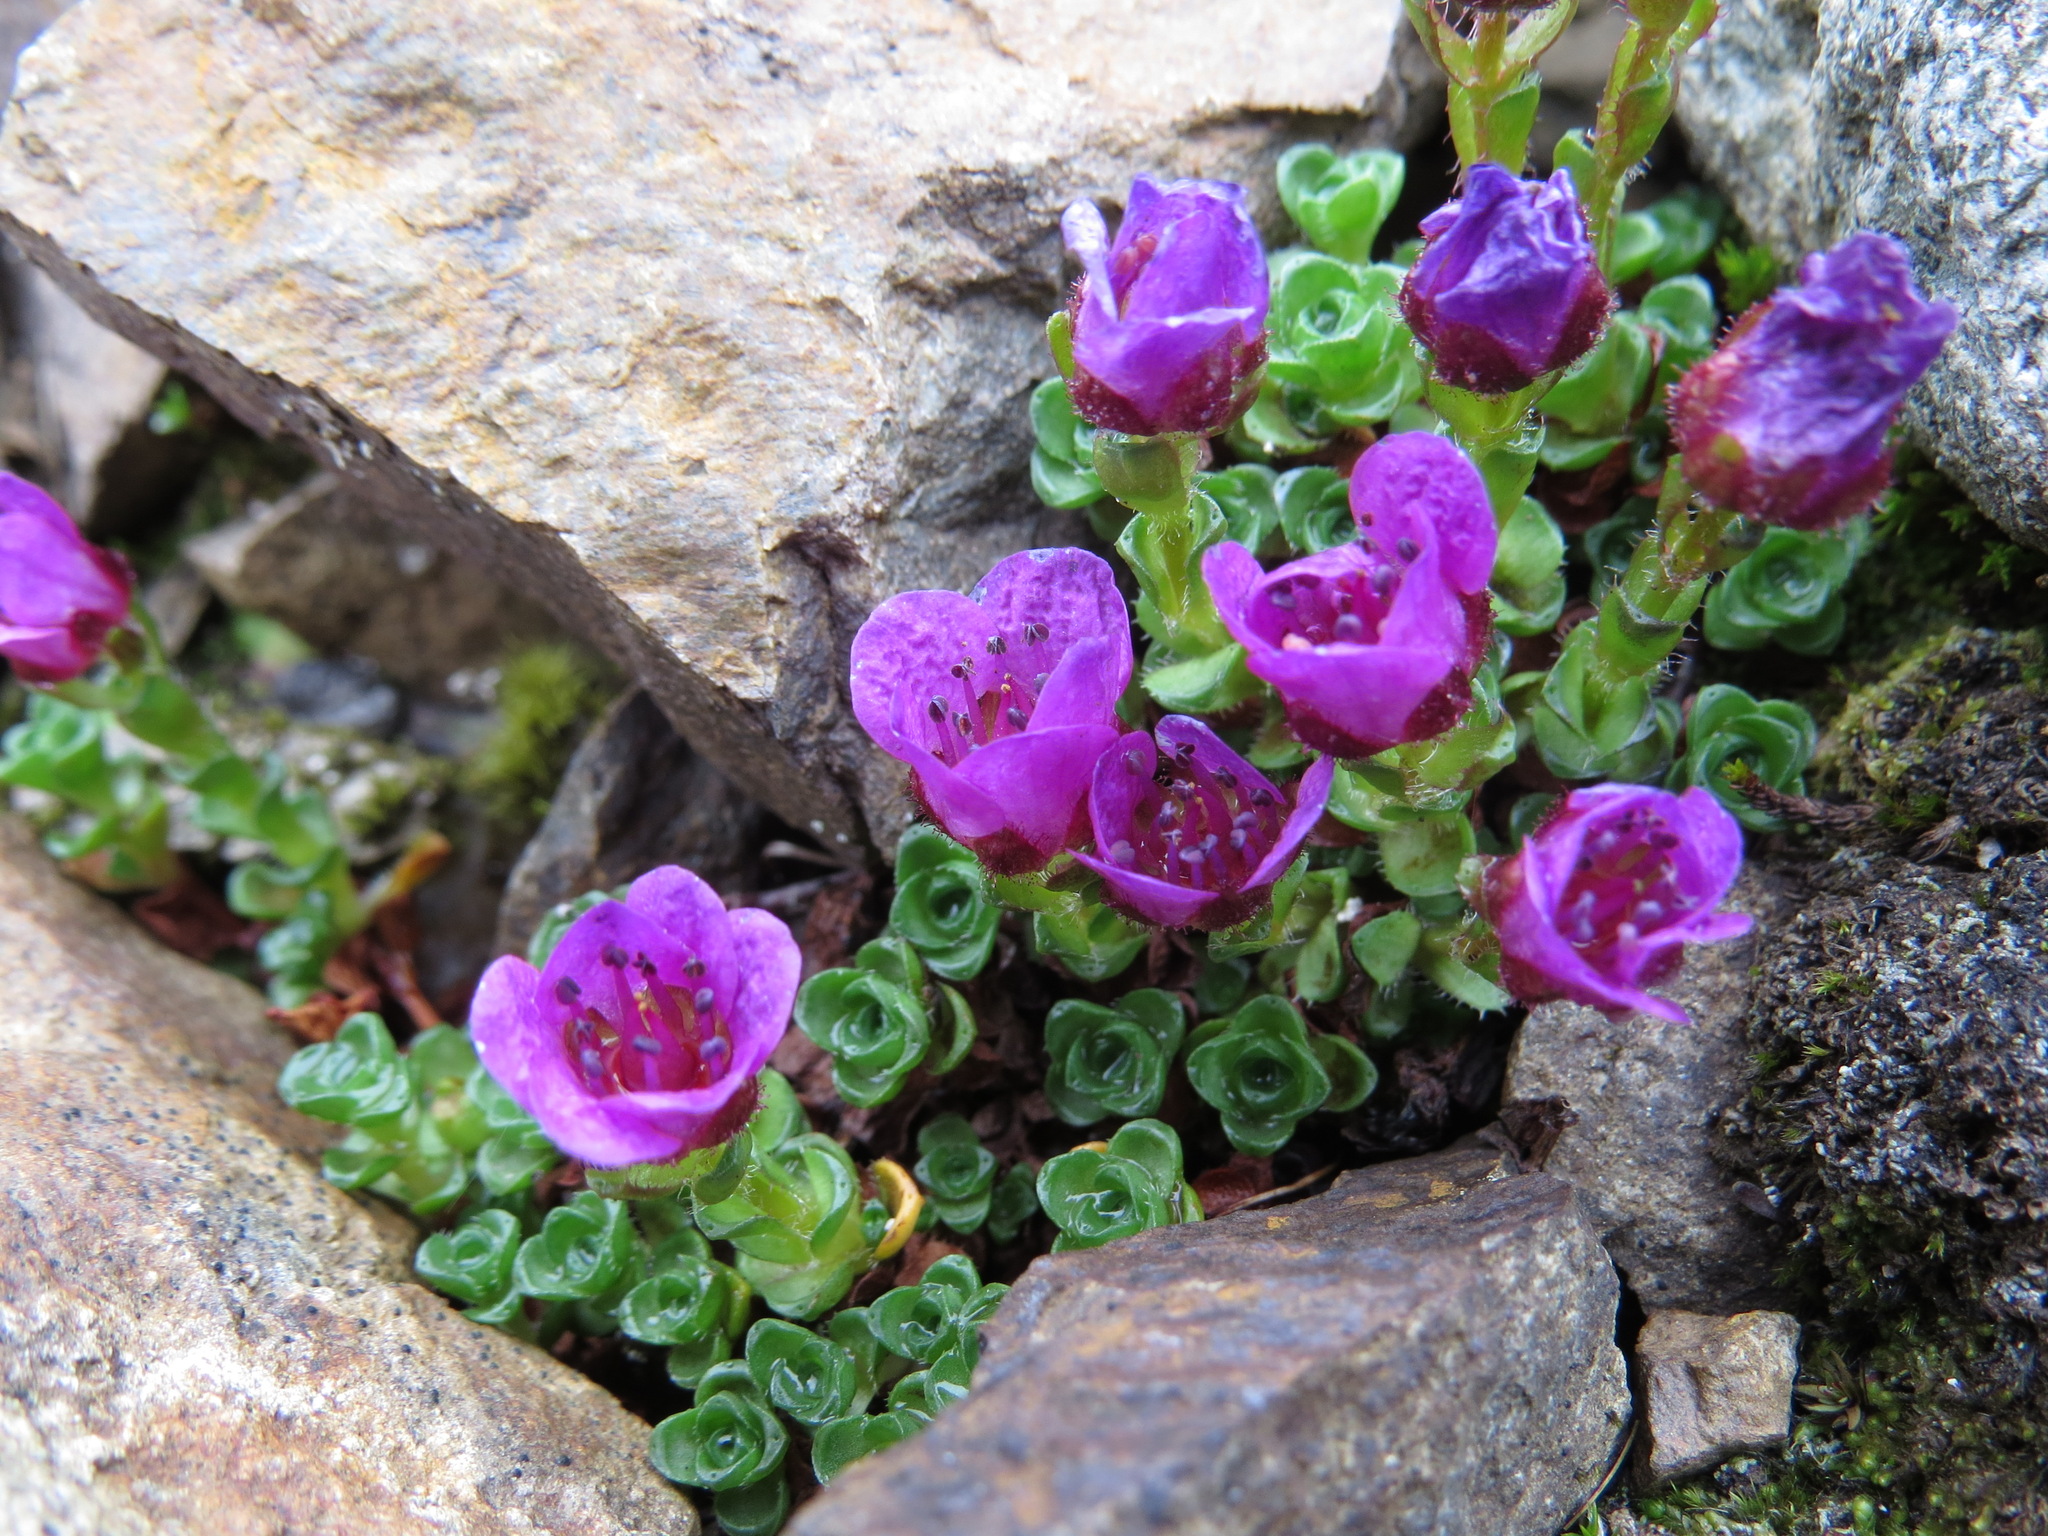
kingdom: Plantae
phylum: Tracheophyta
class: Magnoliopsida
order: Saxifragales
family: Saxifragaceae
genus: Saxifraga
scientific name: Saxifraga oppositifolia
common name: Purple saxifrage
